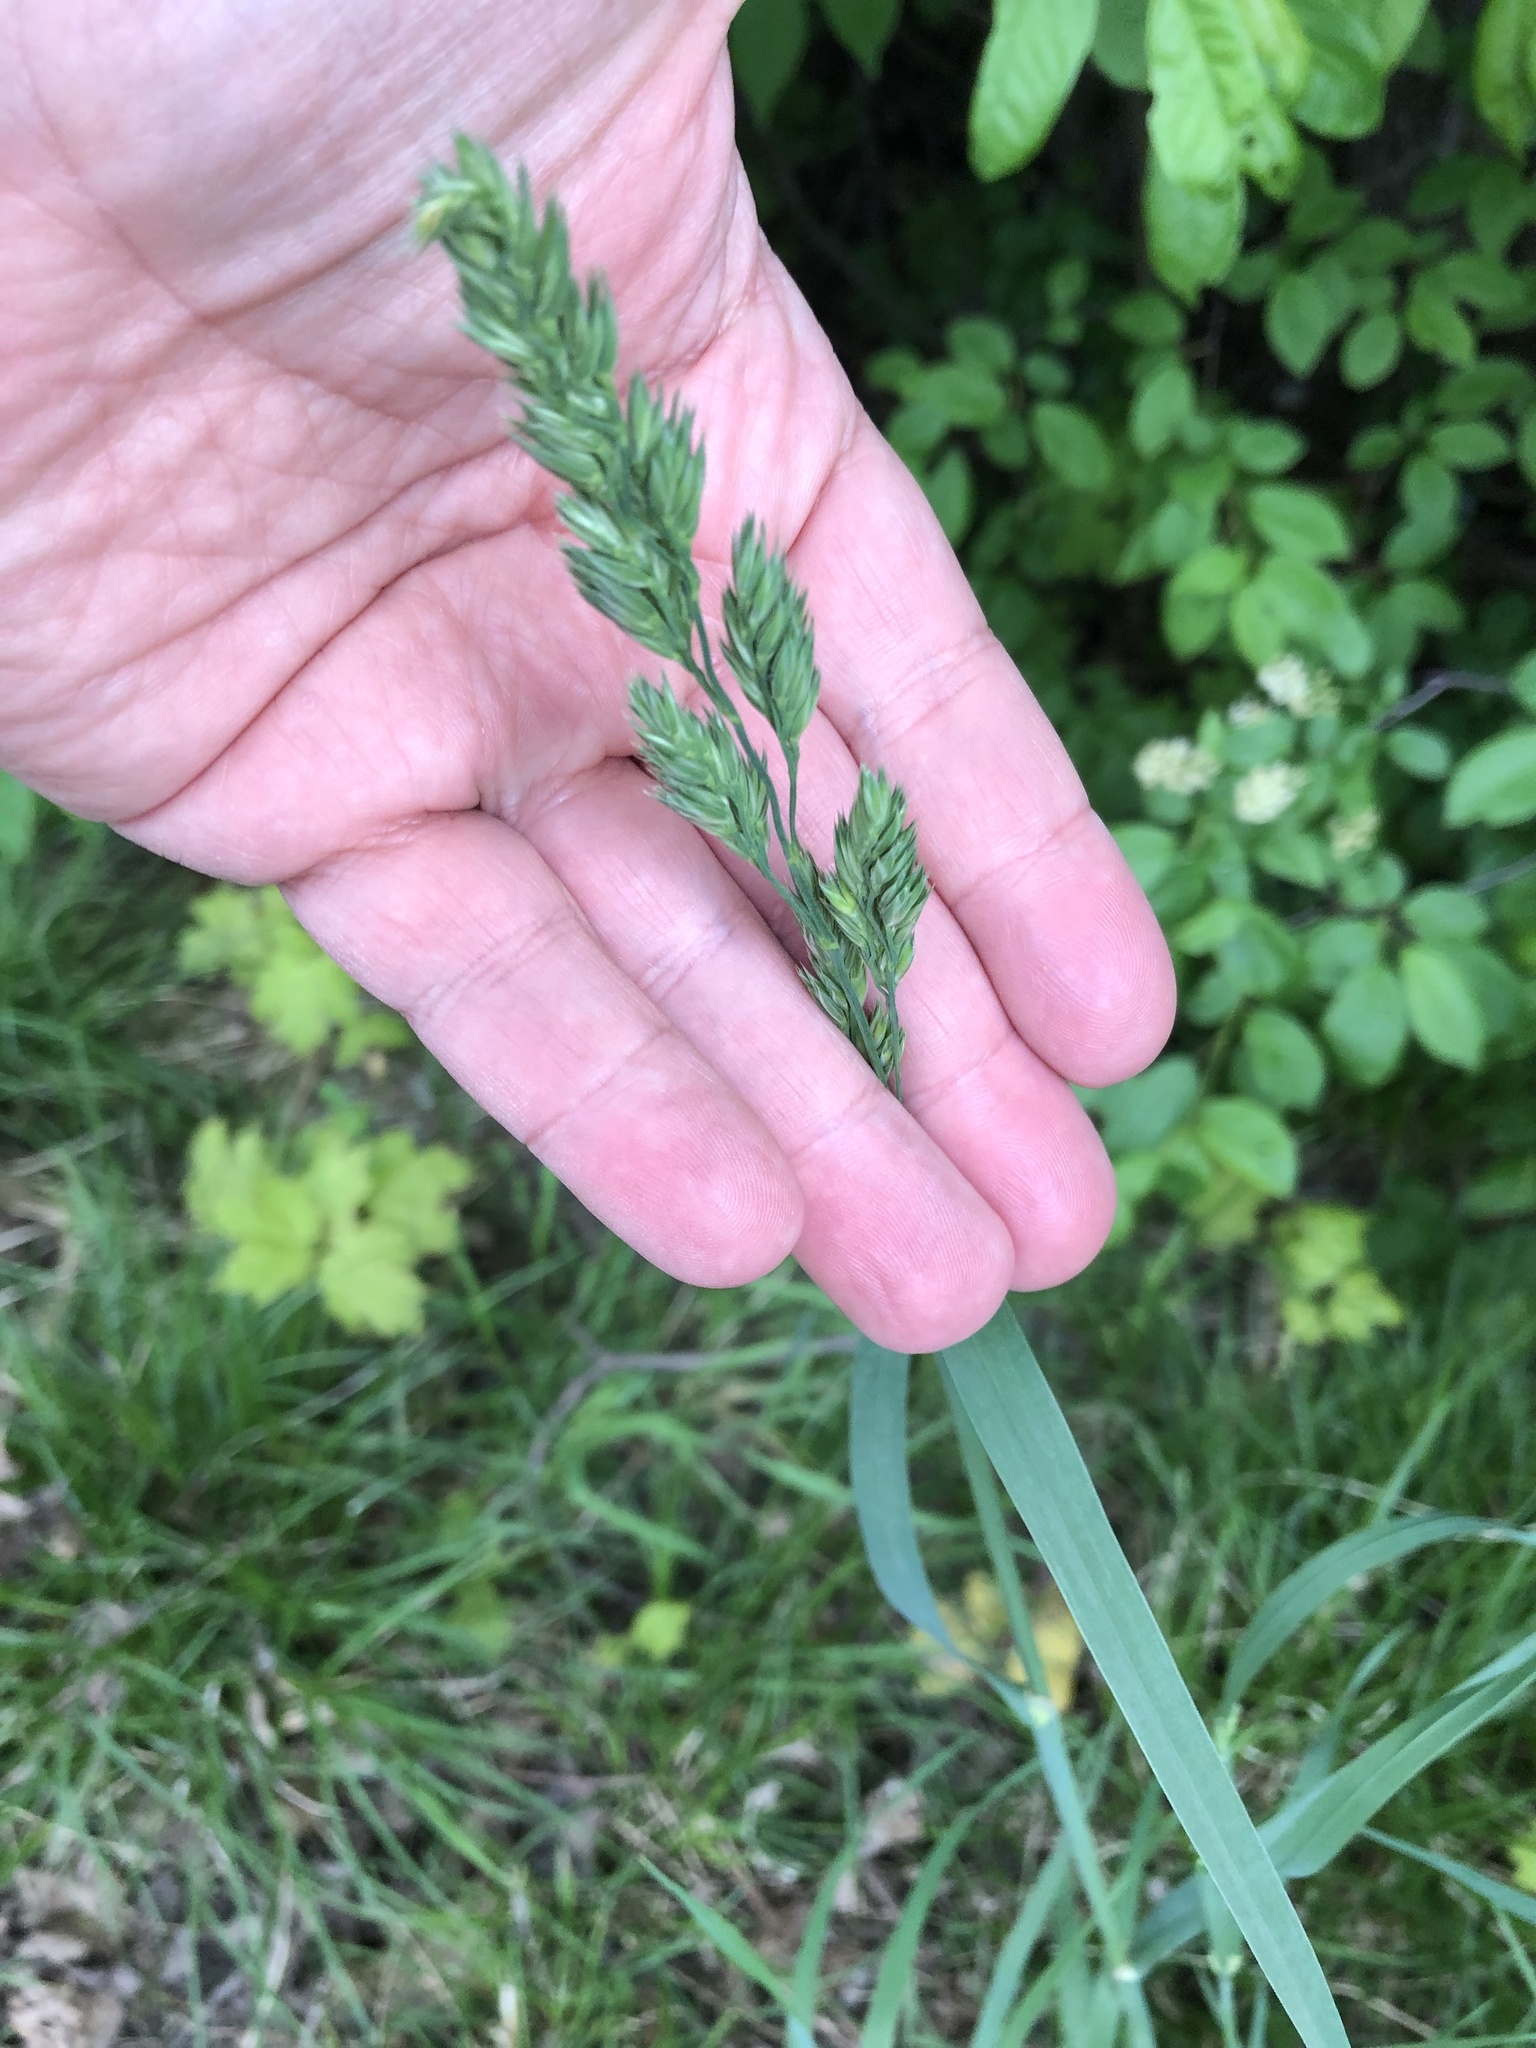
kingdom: Plantae
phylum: Tracheophyta
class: Liliopsida
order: Poales
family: Poaceae
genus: Dactylis
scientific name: Dactylis glomerata
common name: Orchardgrass
